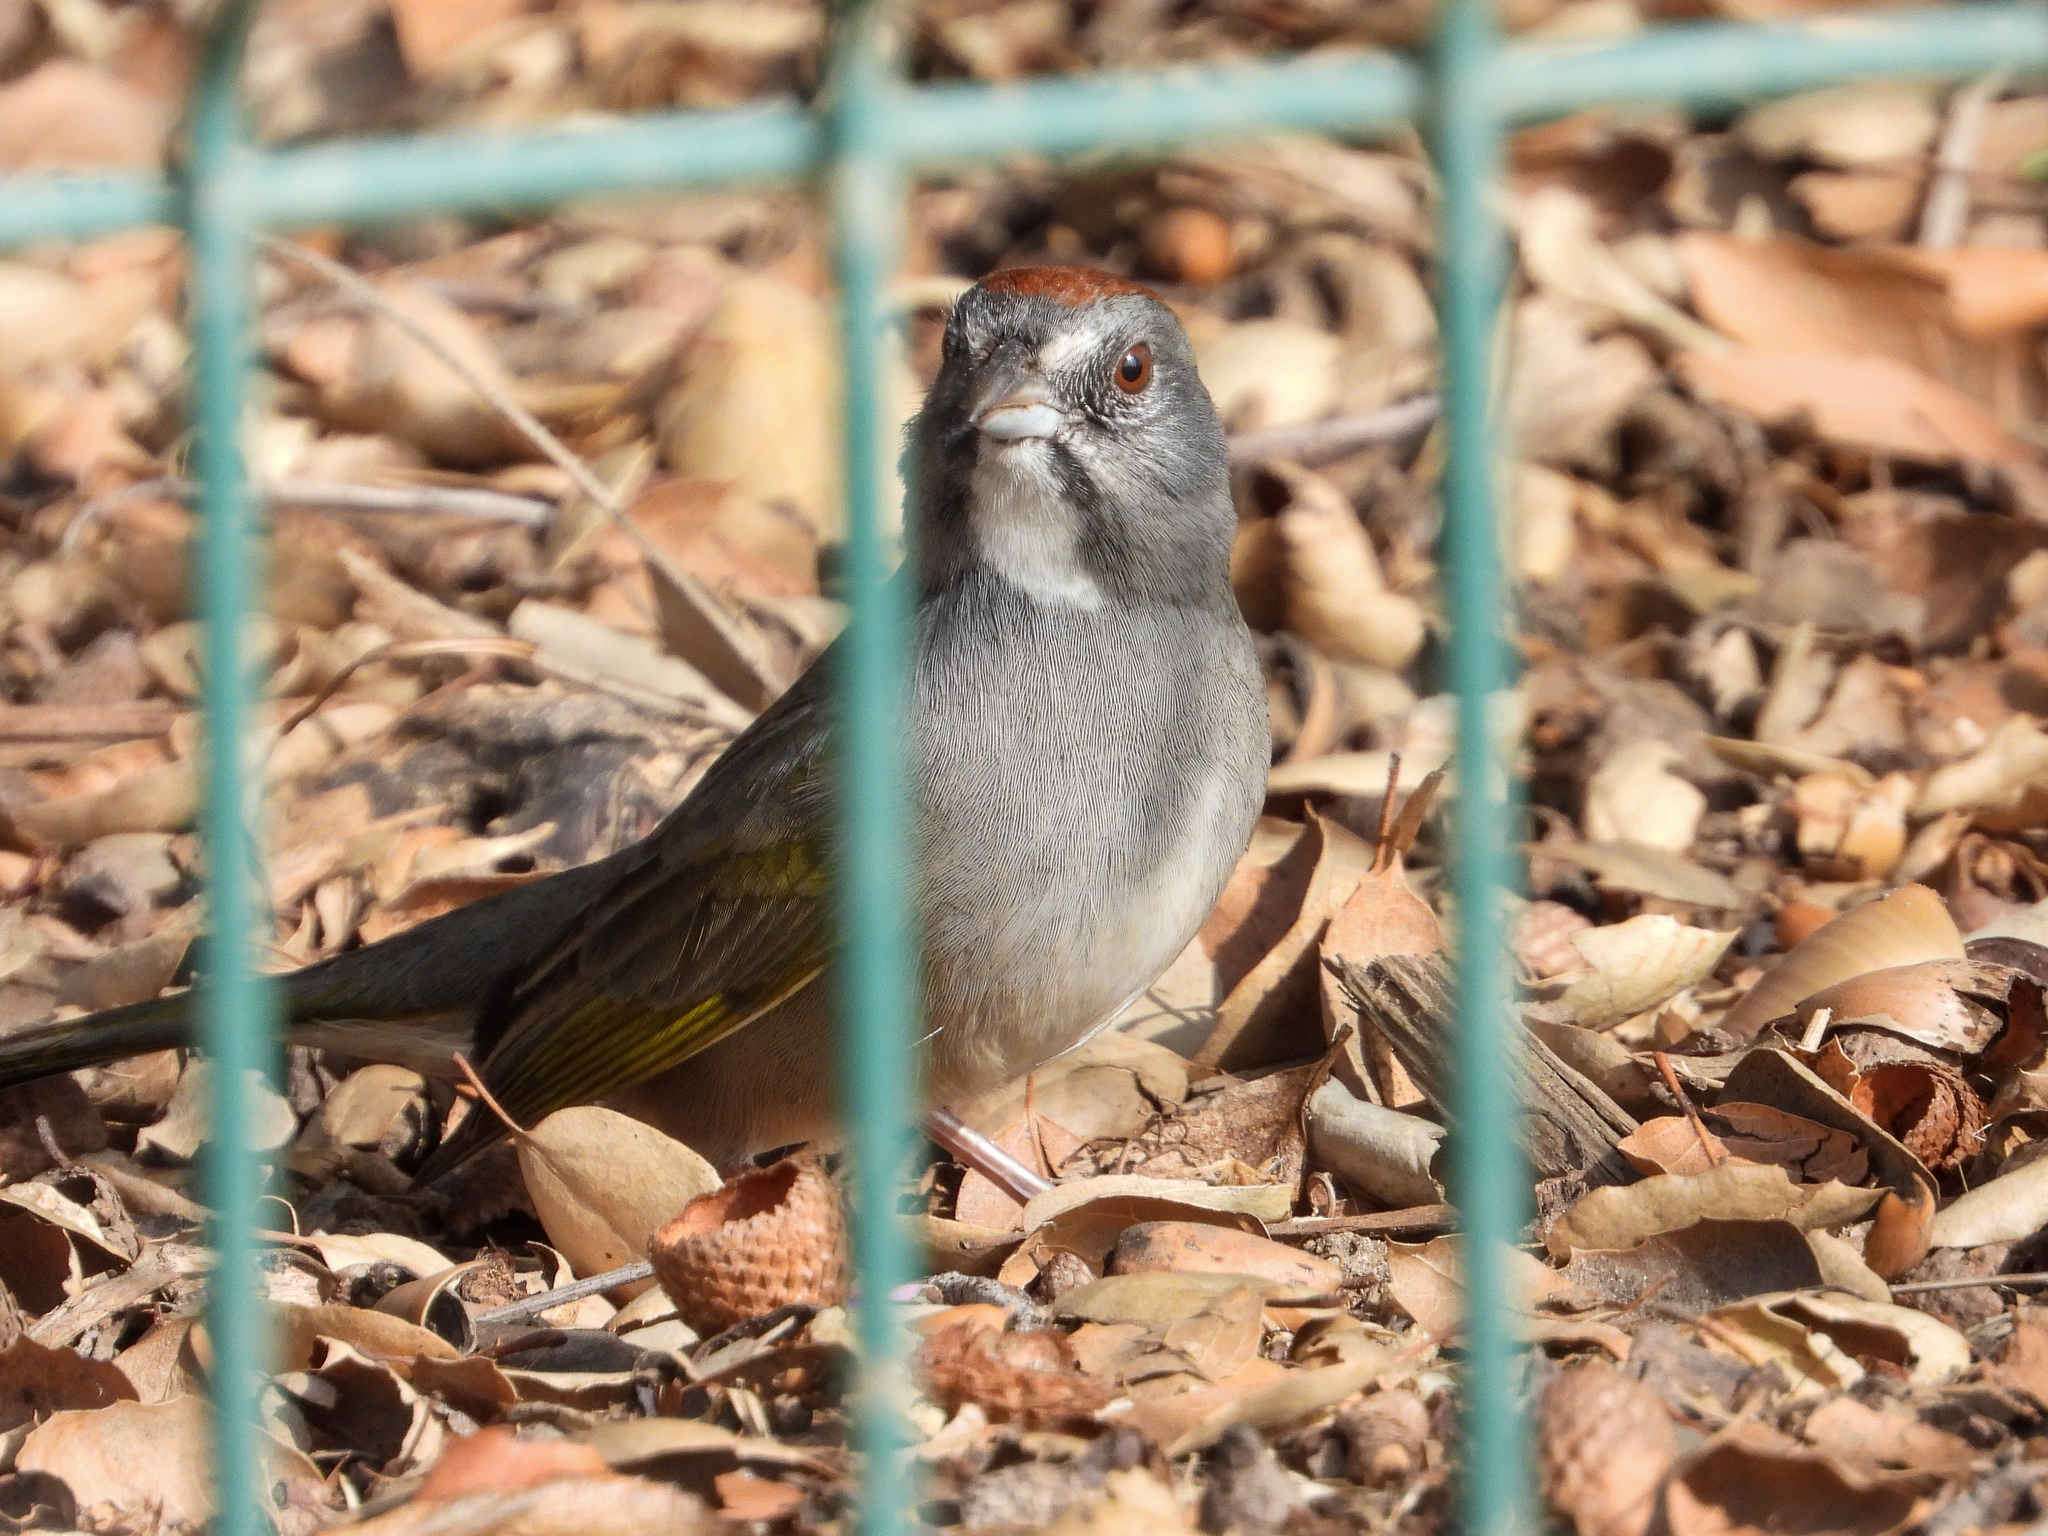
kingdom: Animalia
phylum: Chordata
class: Aves
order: Passeriformes
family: Passerellidae
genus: Pipilo
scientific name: Pipilo chlorurus
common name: Green-tailed towhee
